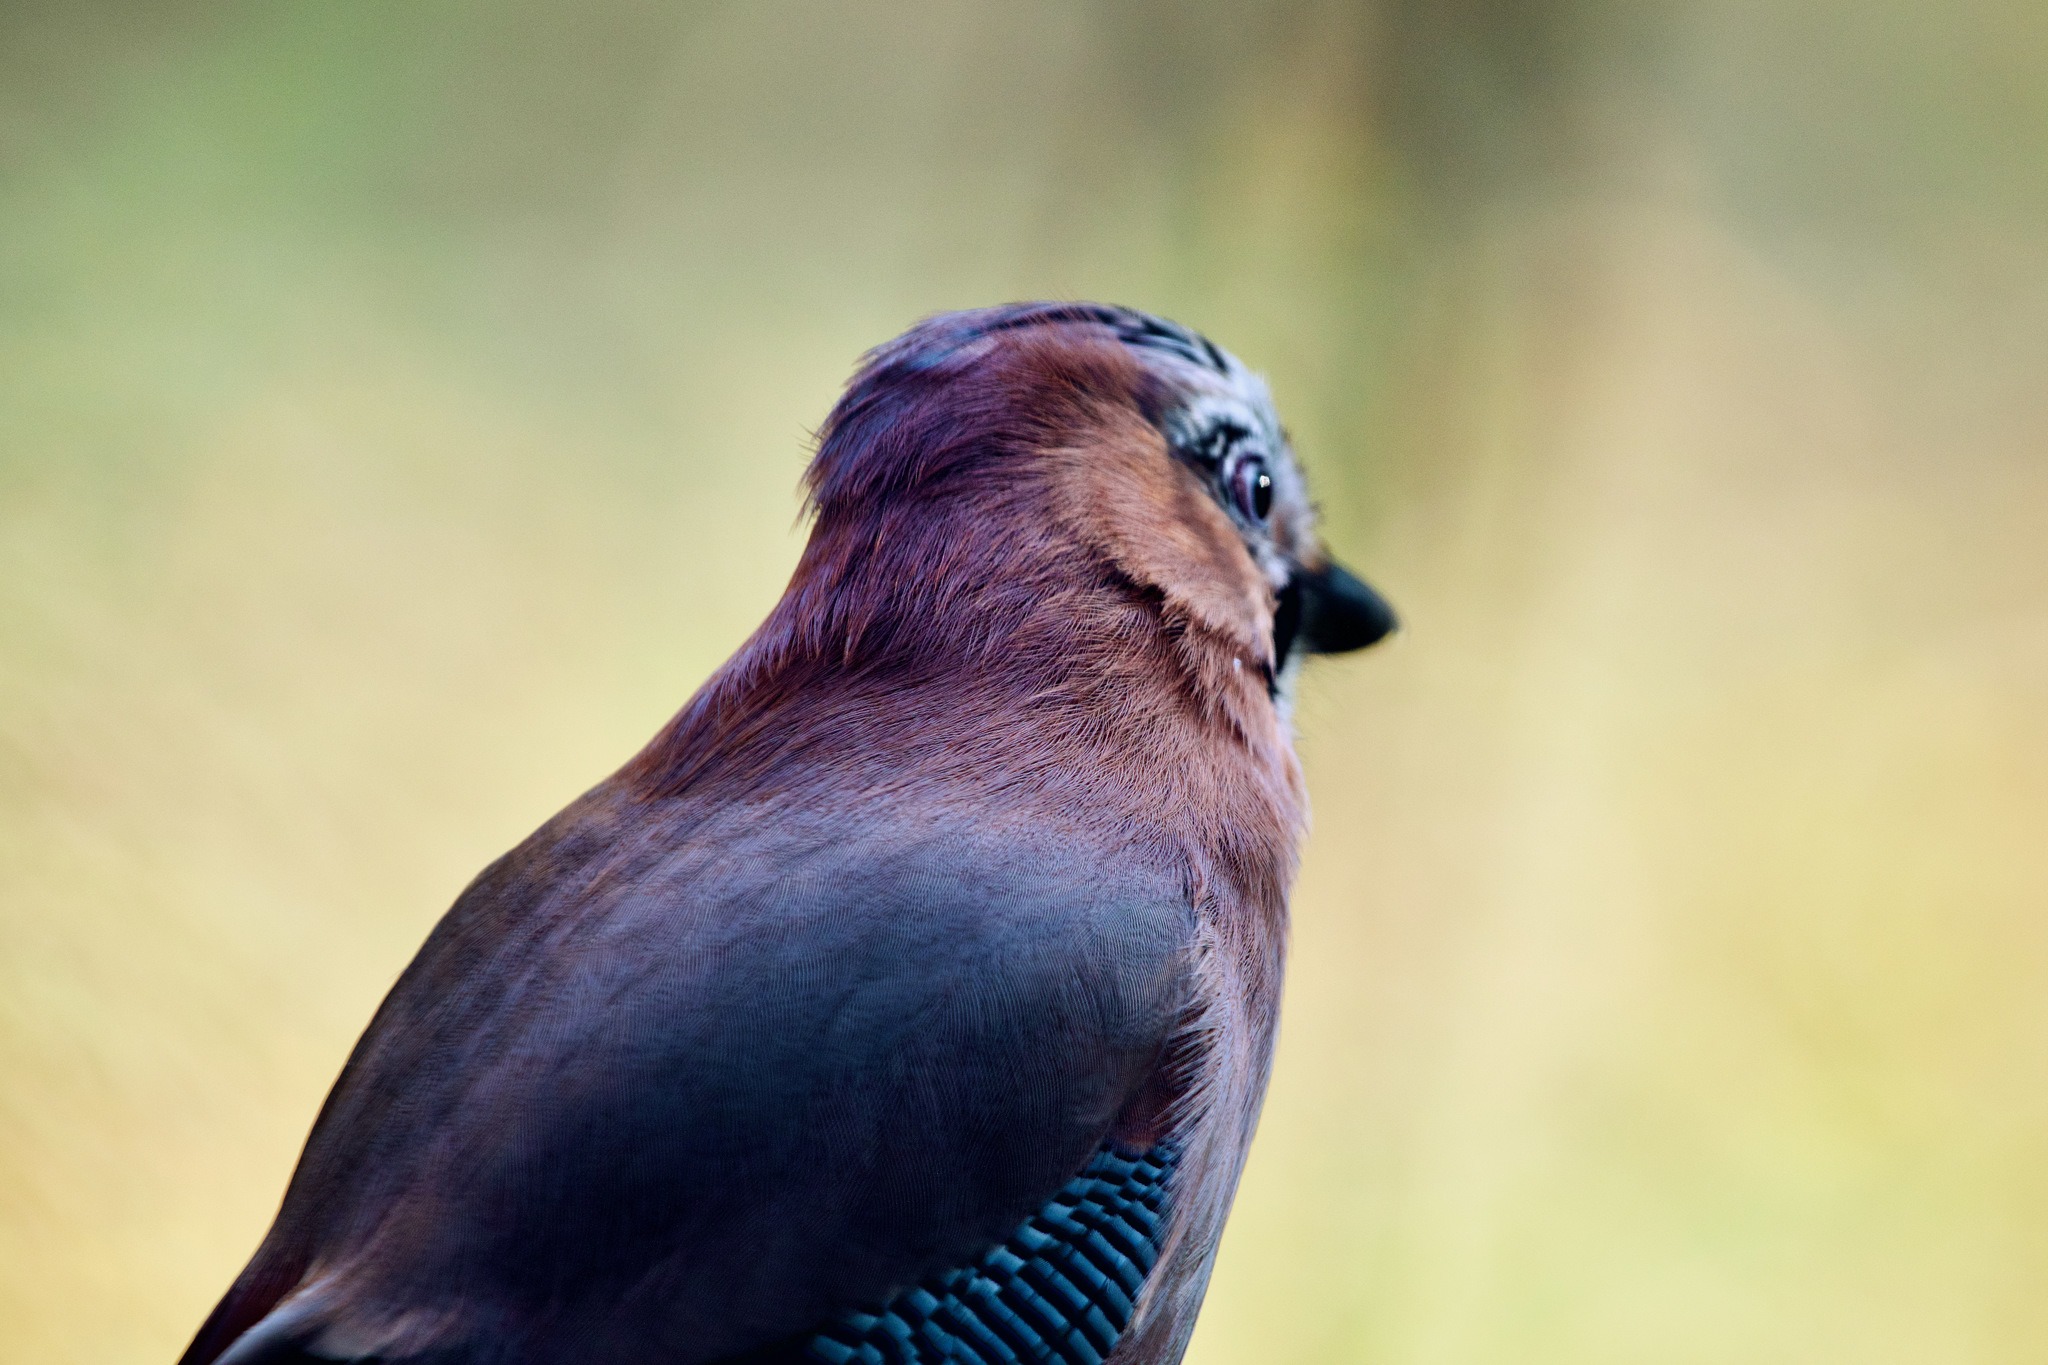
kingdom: Animalia
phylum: Chordata
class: Aves
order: Passeriformes
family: Corvidae
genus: Garrulus
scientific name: Garrulus glandarius
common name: Eurasian jay
